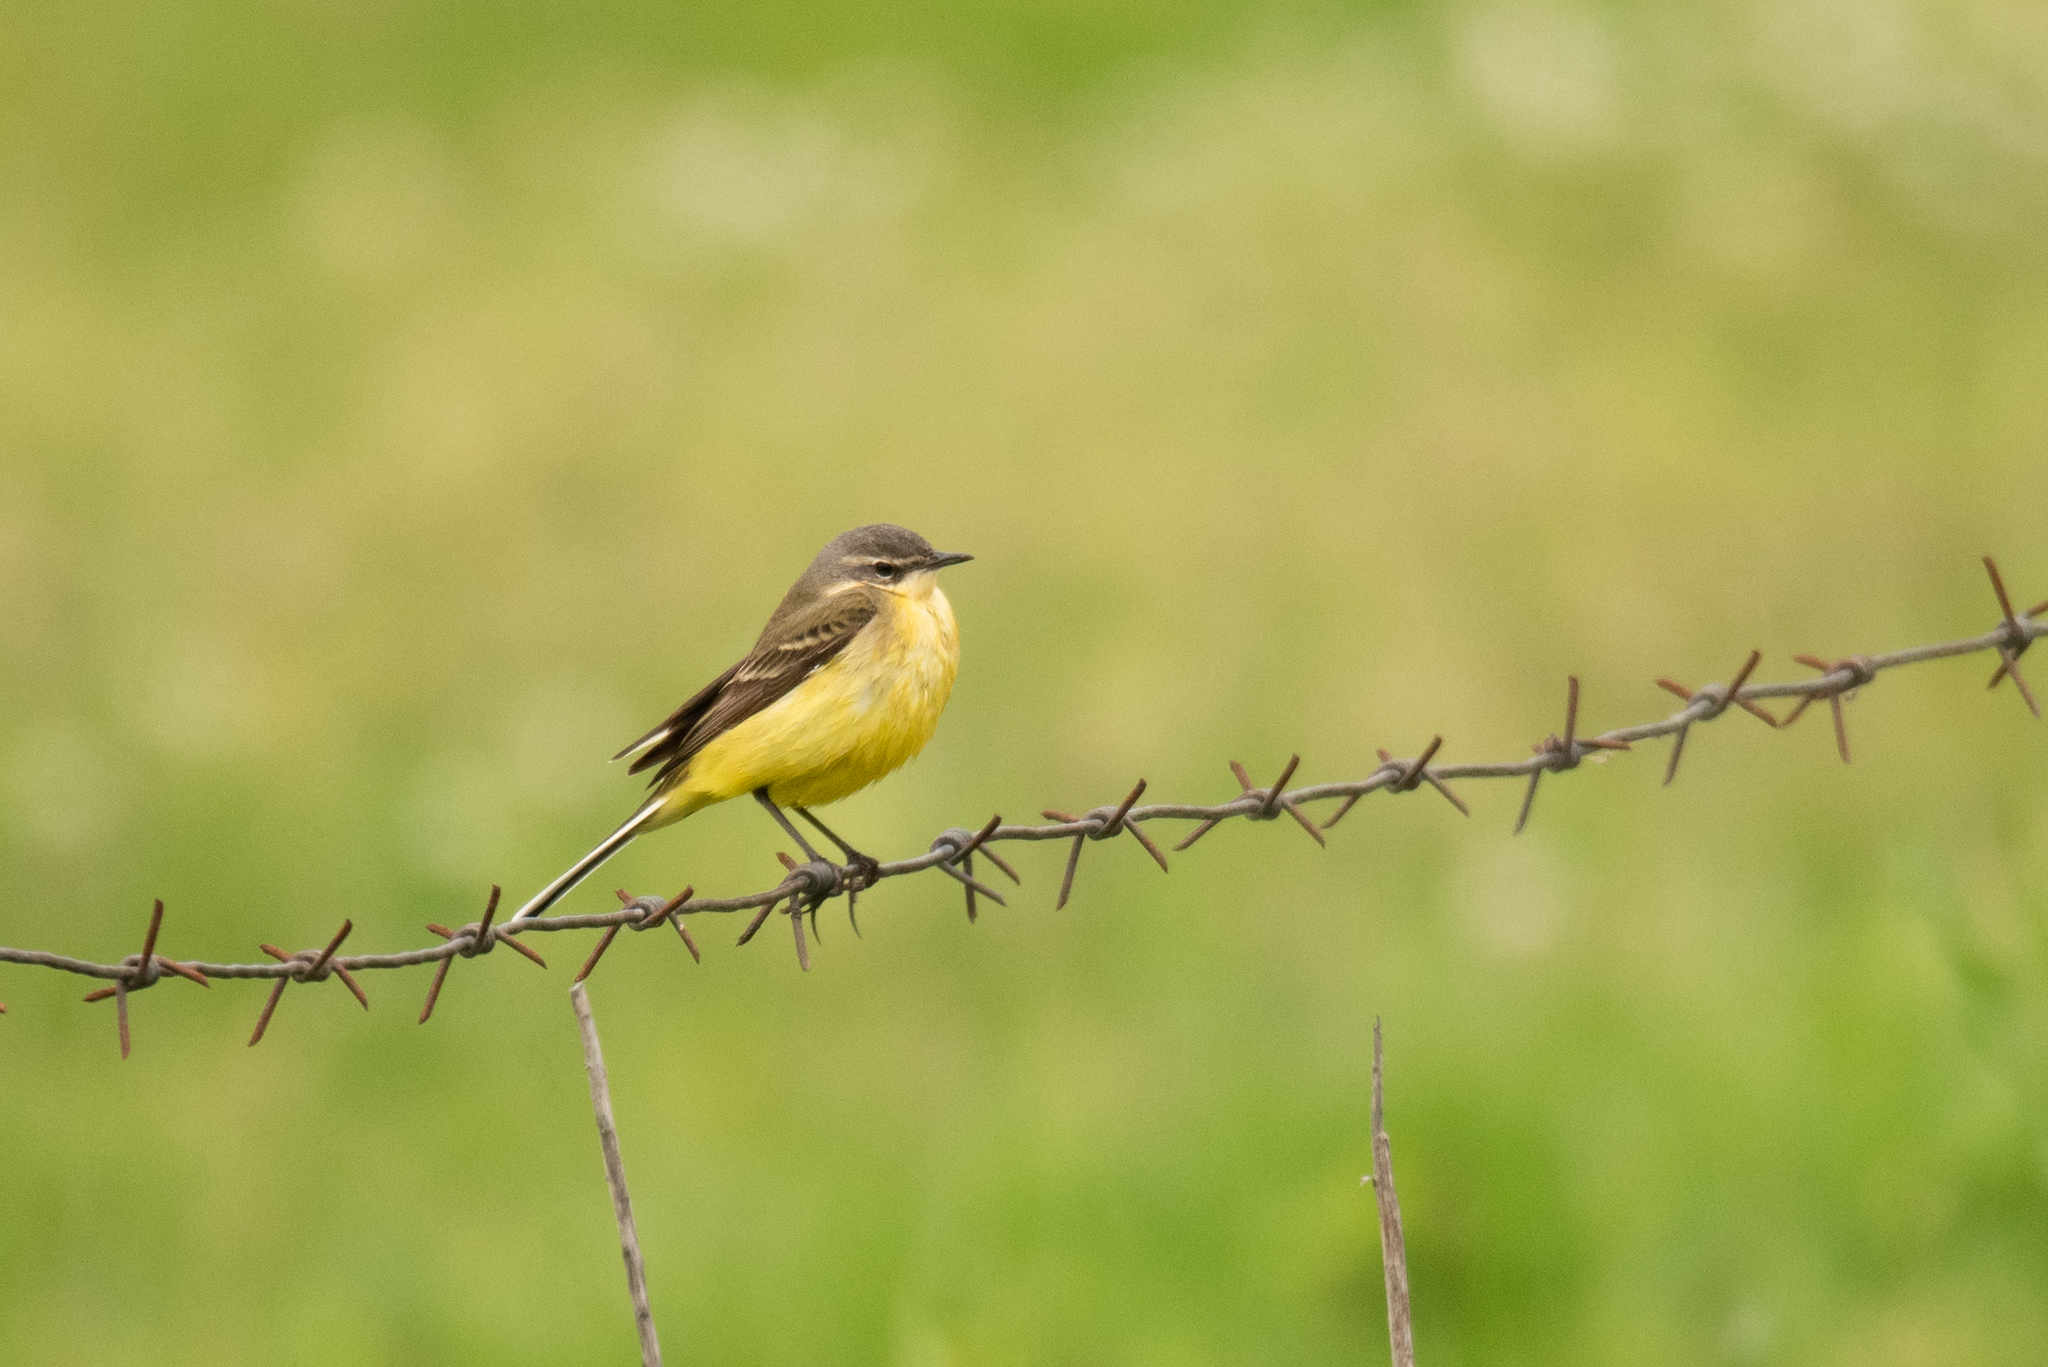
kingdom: Animalia
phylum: Chordata
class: Aves
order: Passeriformes
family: Motacillidae
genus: Motacilla
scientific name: Motacilla flava
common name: Western yellow wagtail
